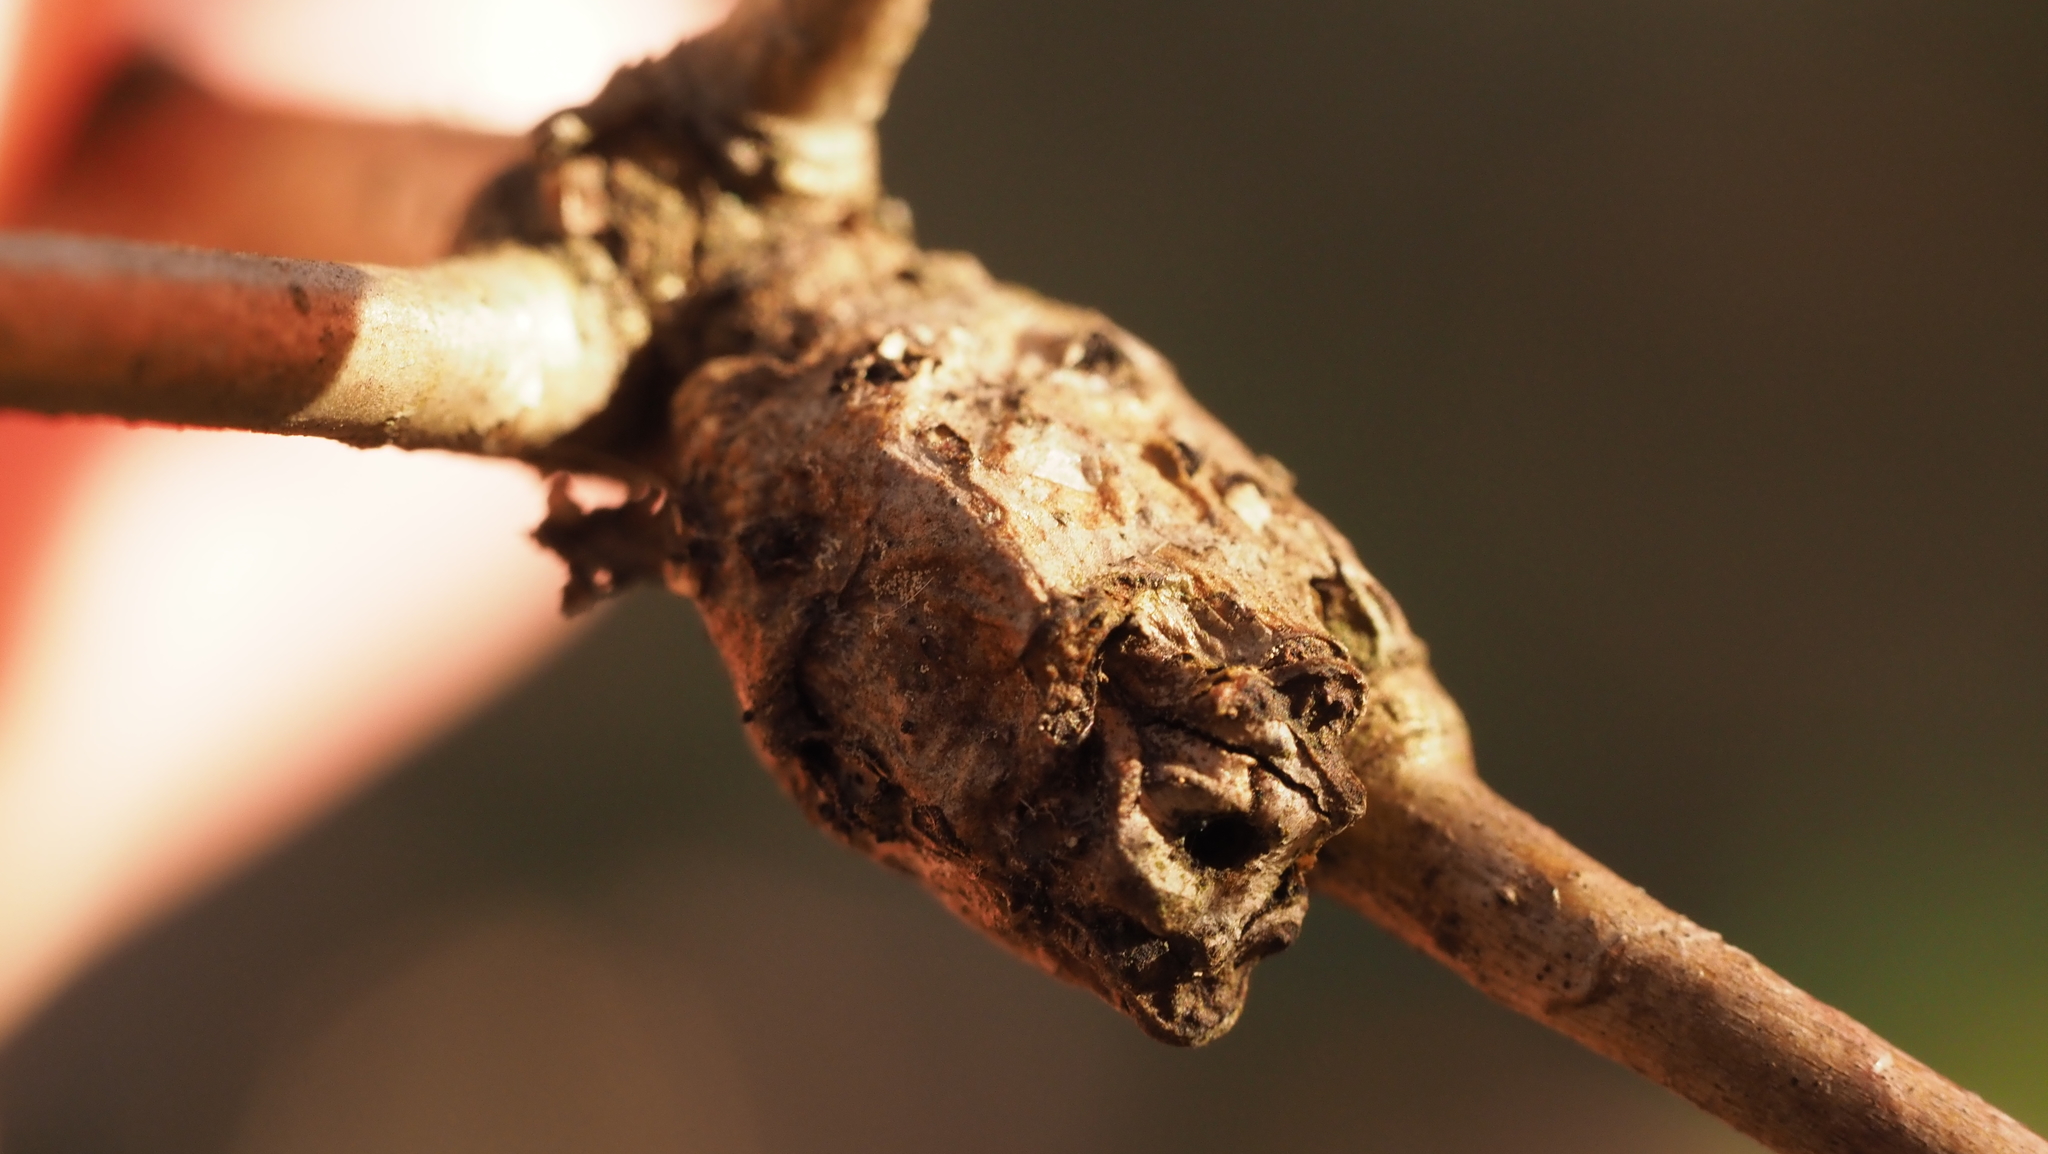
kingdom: Animalia
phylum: Arthropoda
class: Insecta
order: Hymenoptera
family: Cynipidae
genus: Callirhytis
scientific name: Callirhytis clavula
